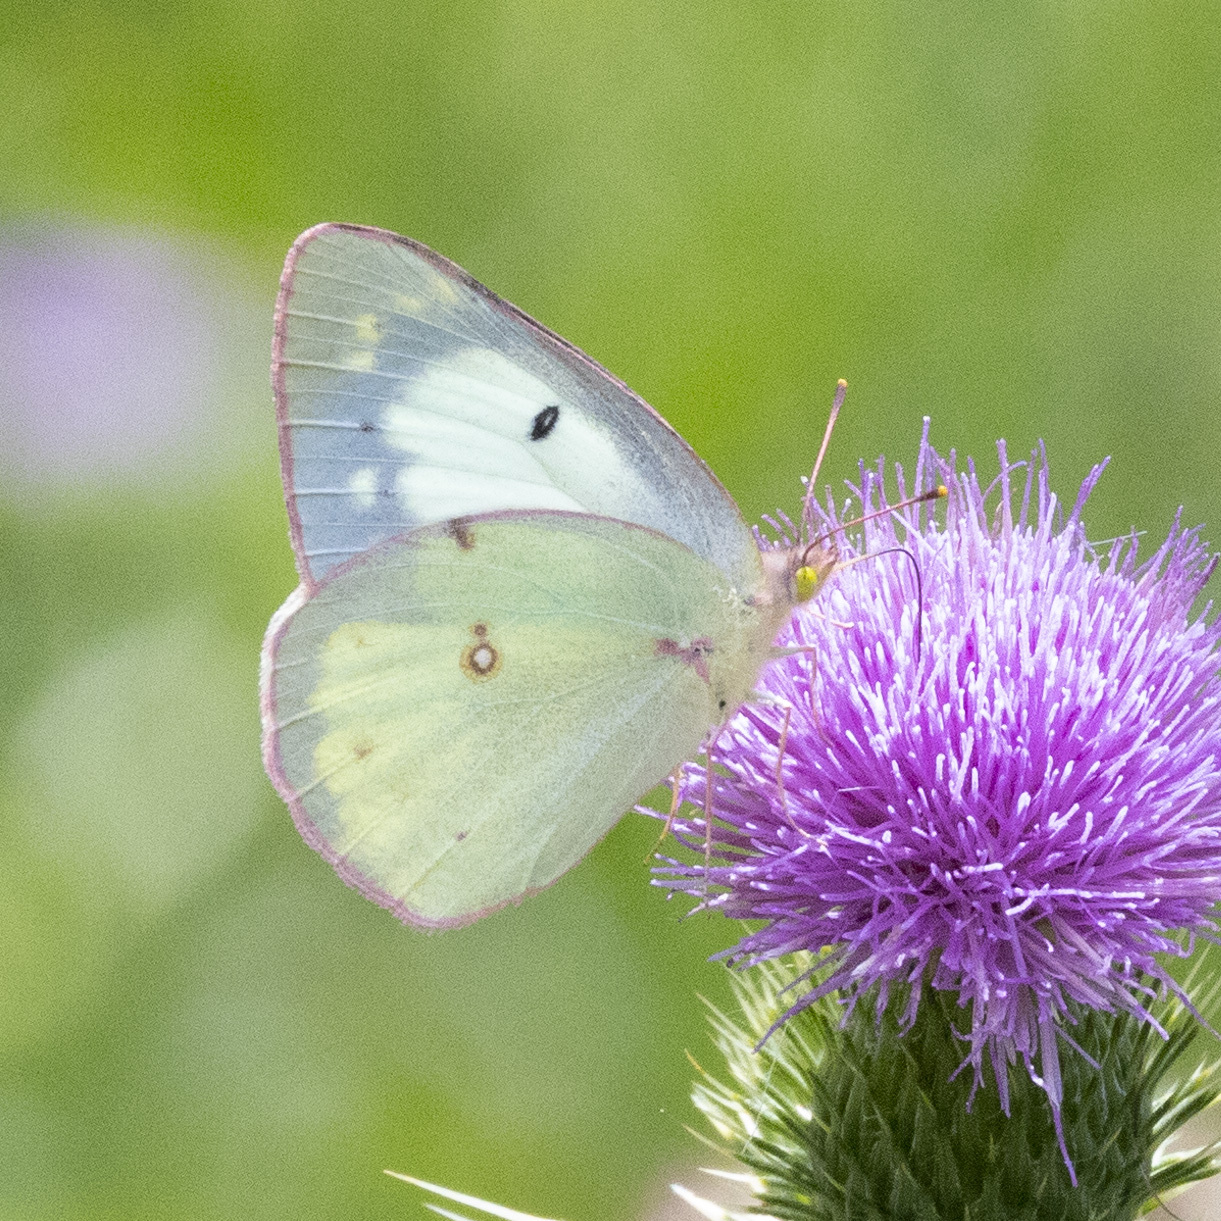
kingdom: Animalia
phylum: Arthropoda
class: Insecta
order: Lepidoptera
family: Pieridae
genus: Colias
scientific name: Colias philodice
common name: Clouded sulphur
